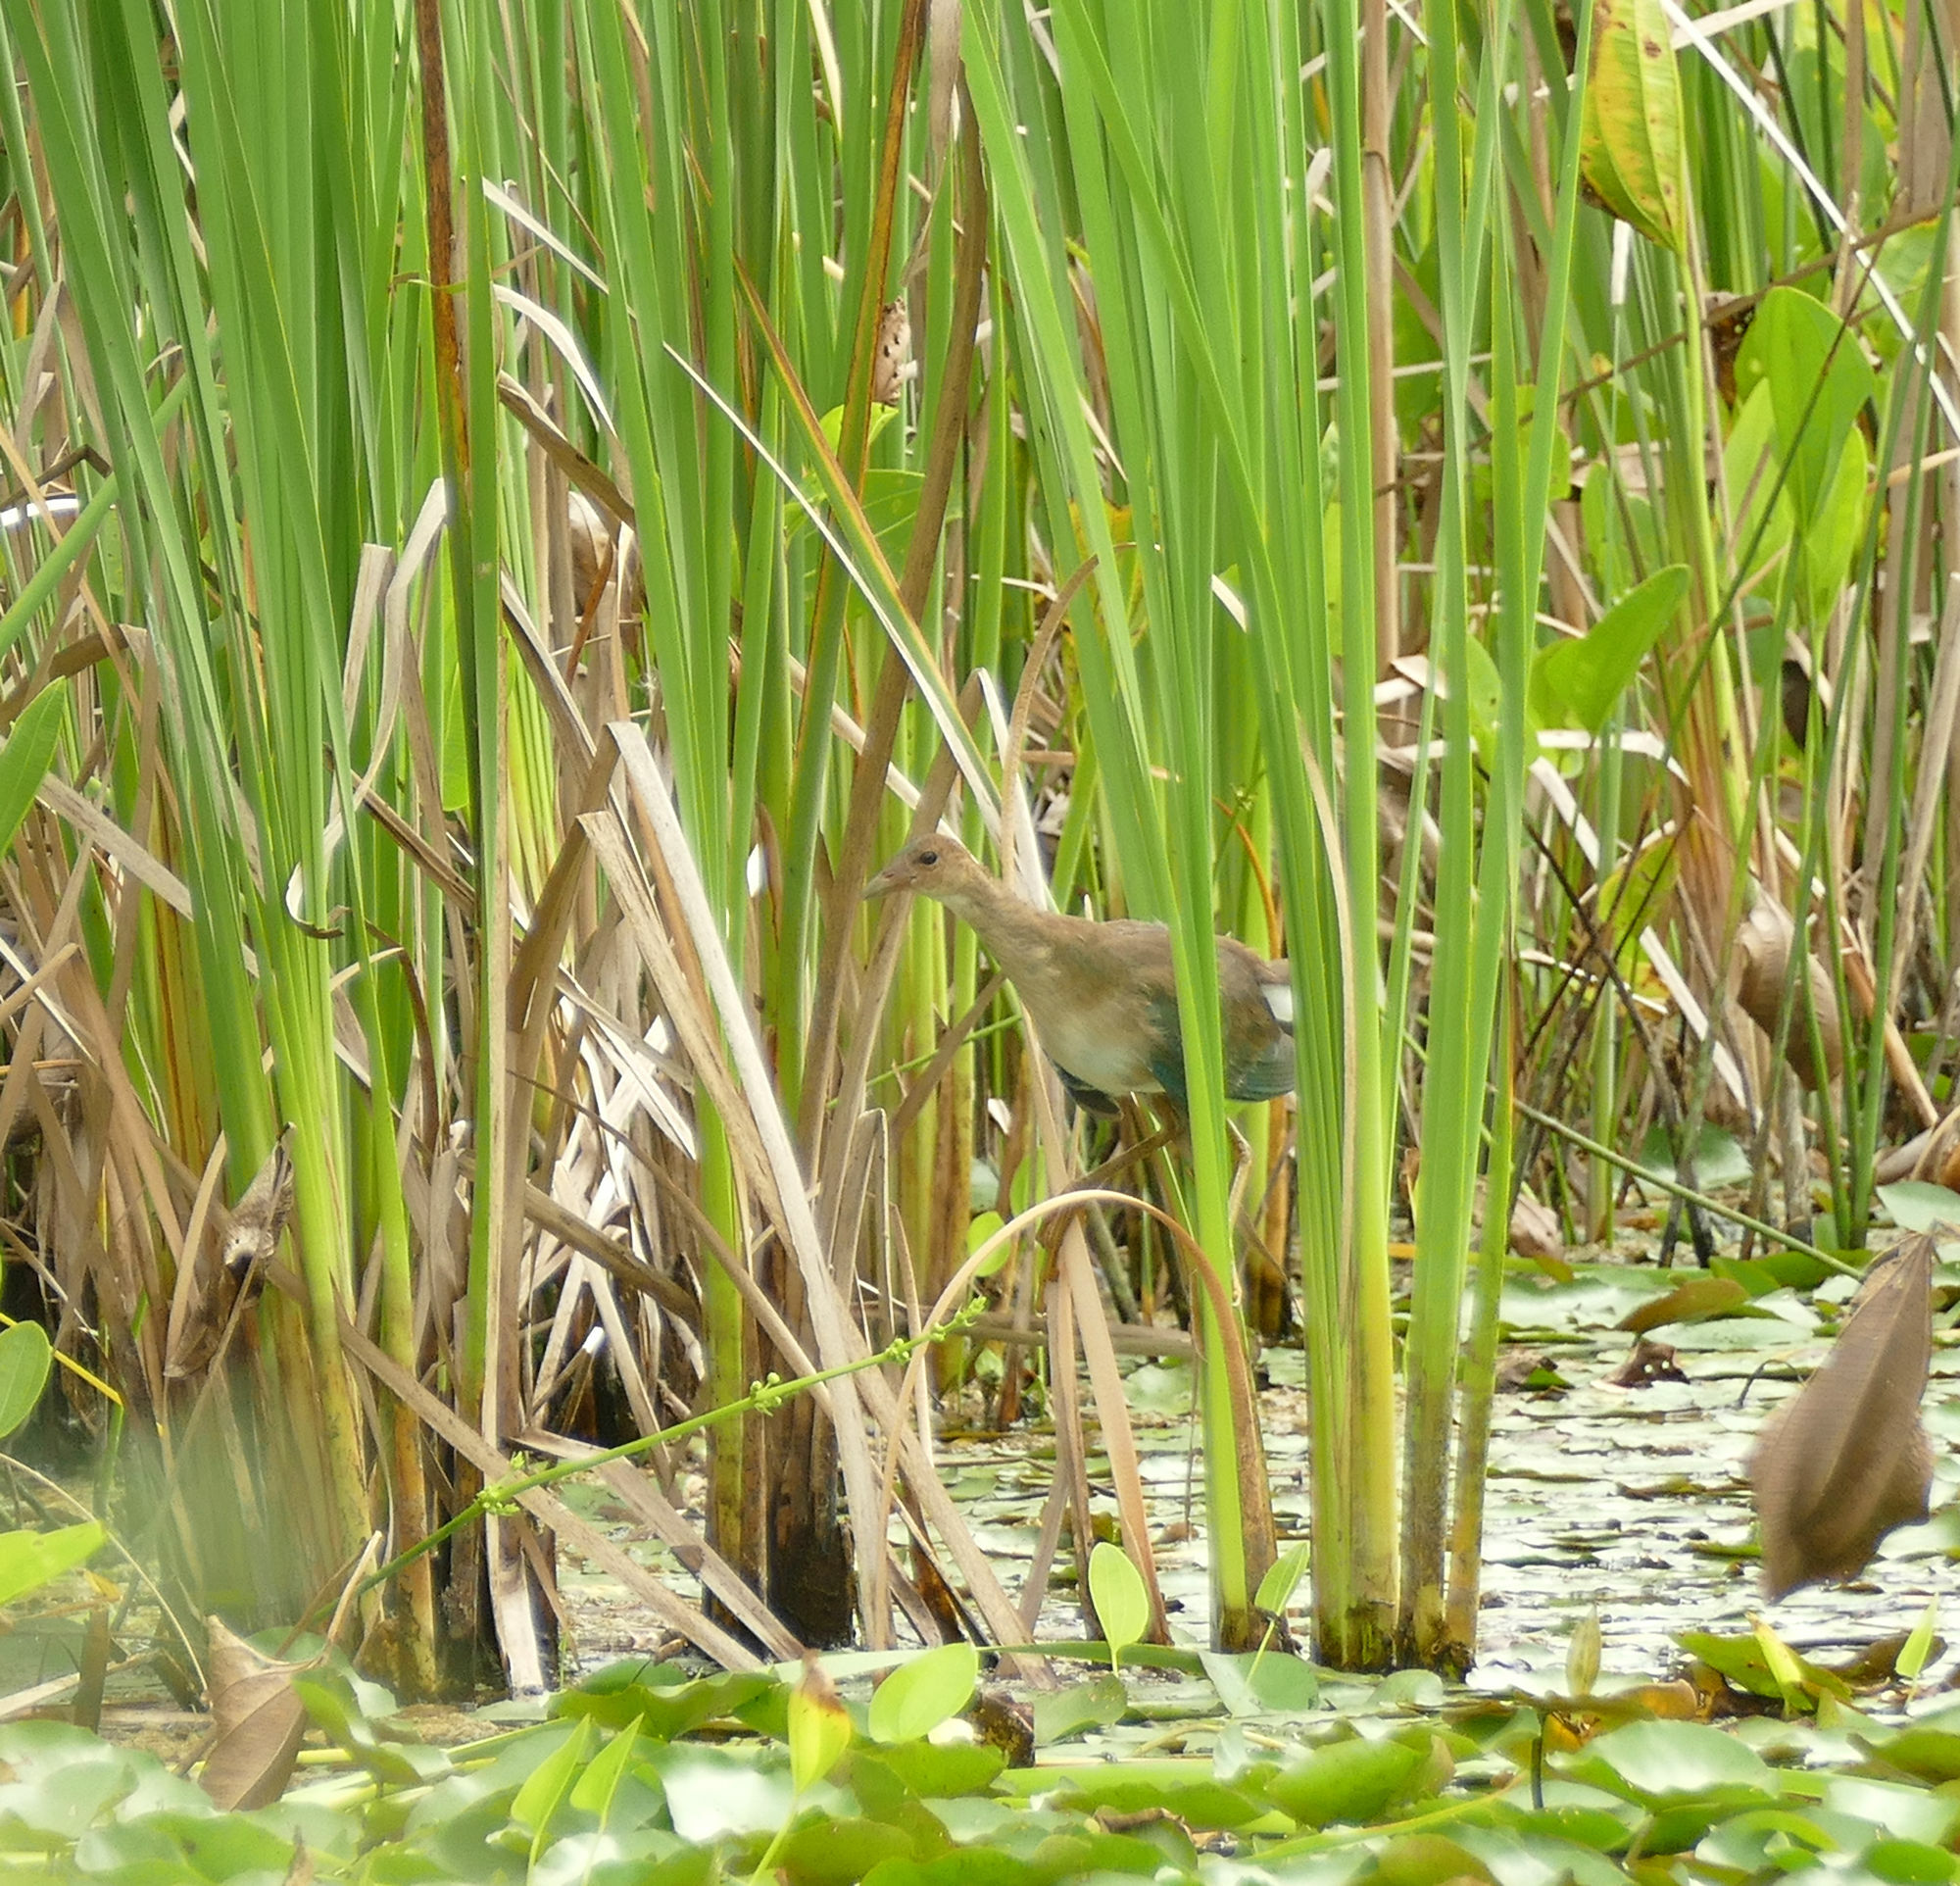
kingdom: Animalia
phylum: Chordata
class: Aves
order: Gruiformes
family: Rallidae
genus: Porphyrio
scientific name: Porphyrio martinica
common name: Purple gallinule
